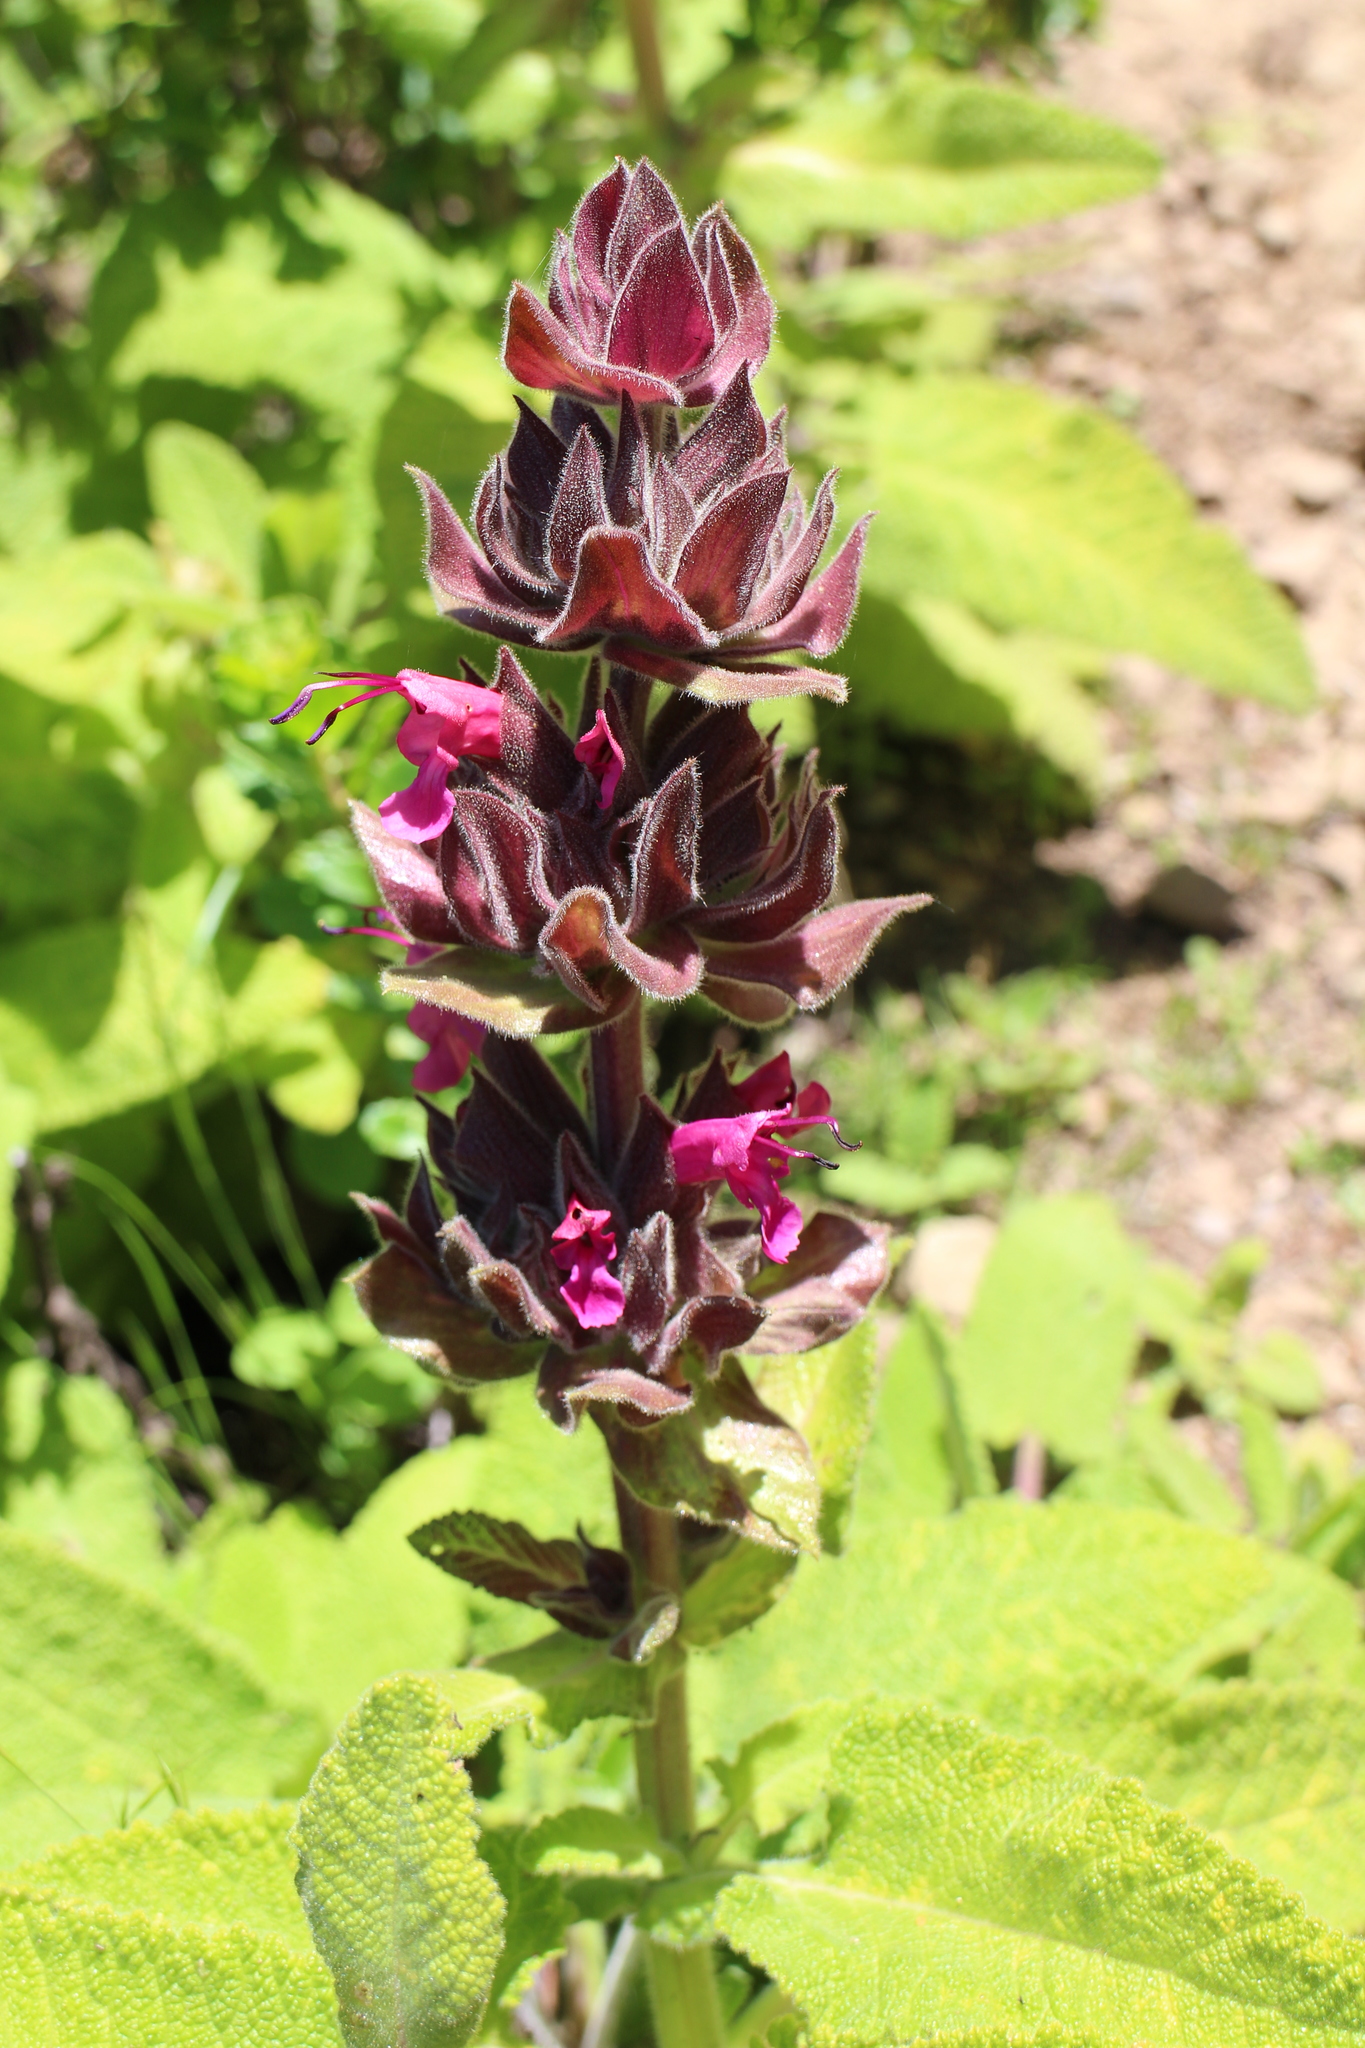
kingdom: Plantae
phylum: Tracheophyta
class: Magnoliopsida
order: Lamiales
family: Lamiaceae
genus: Salvia
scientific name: Salvia spathacea
